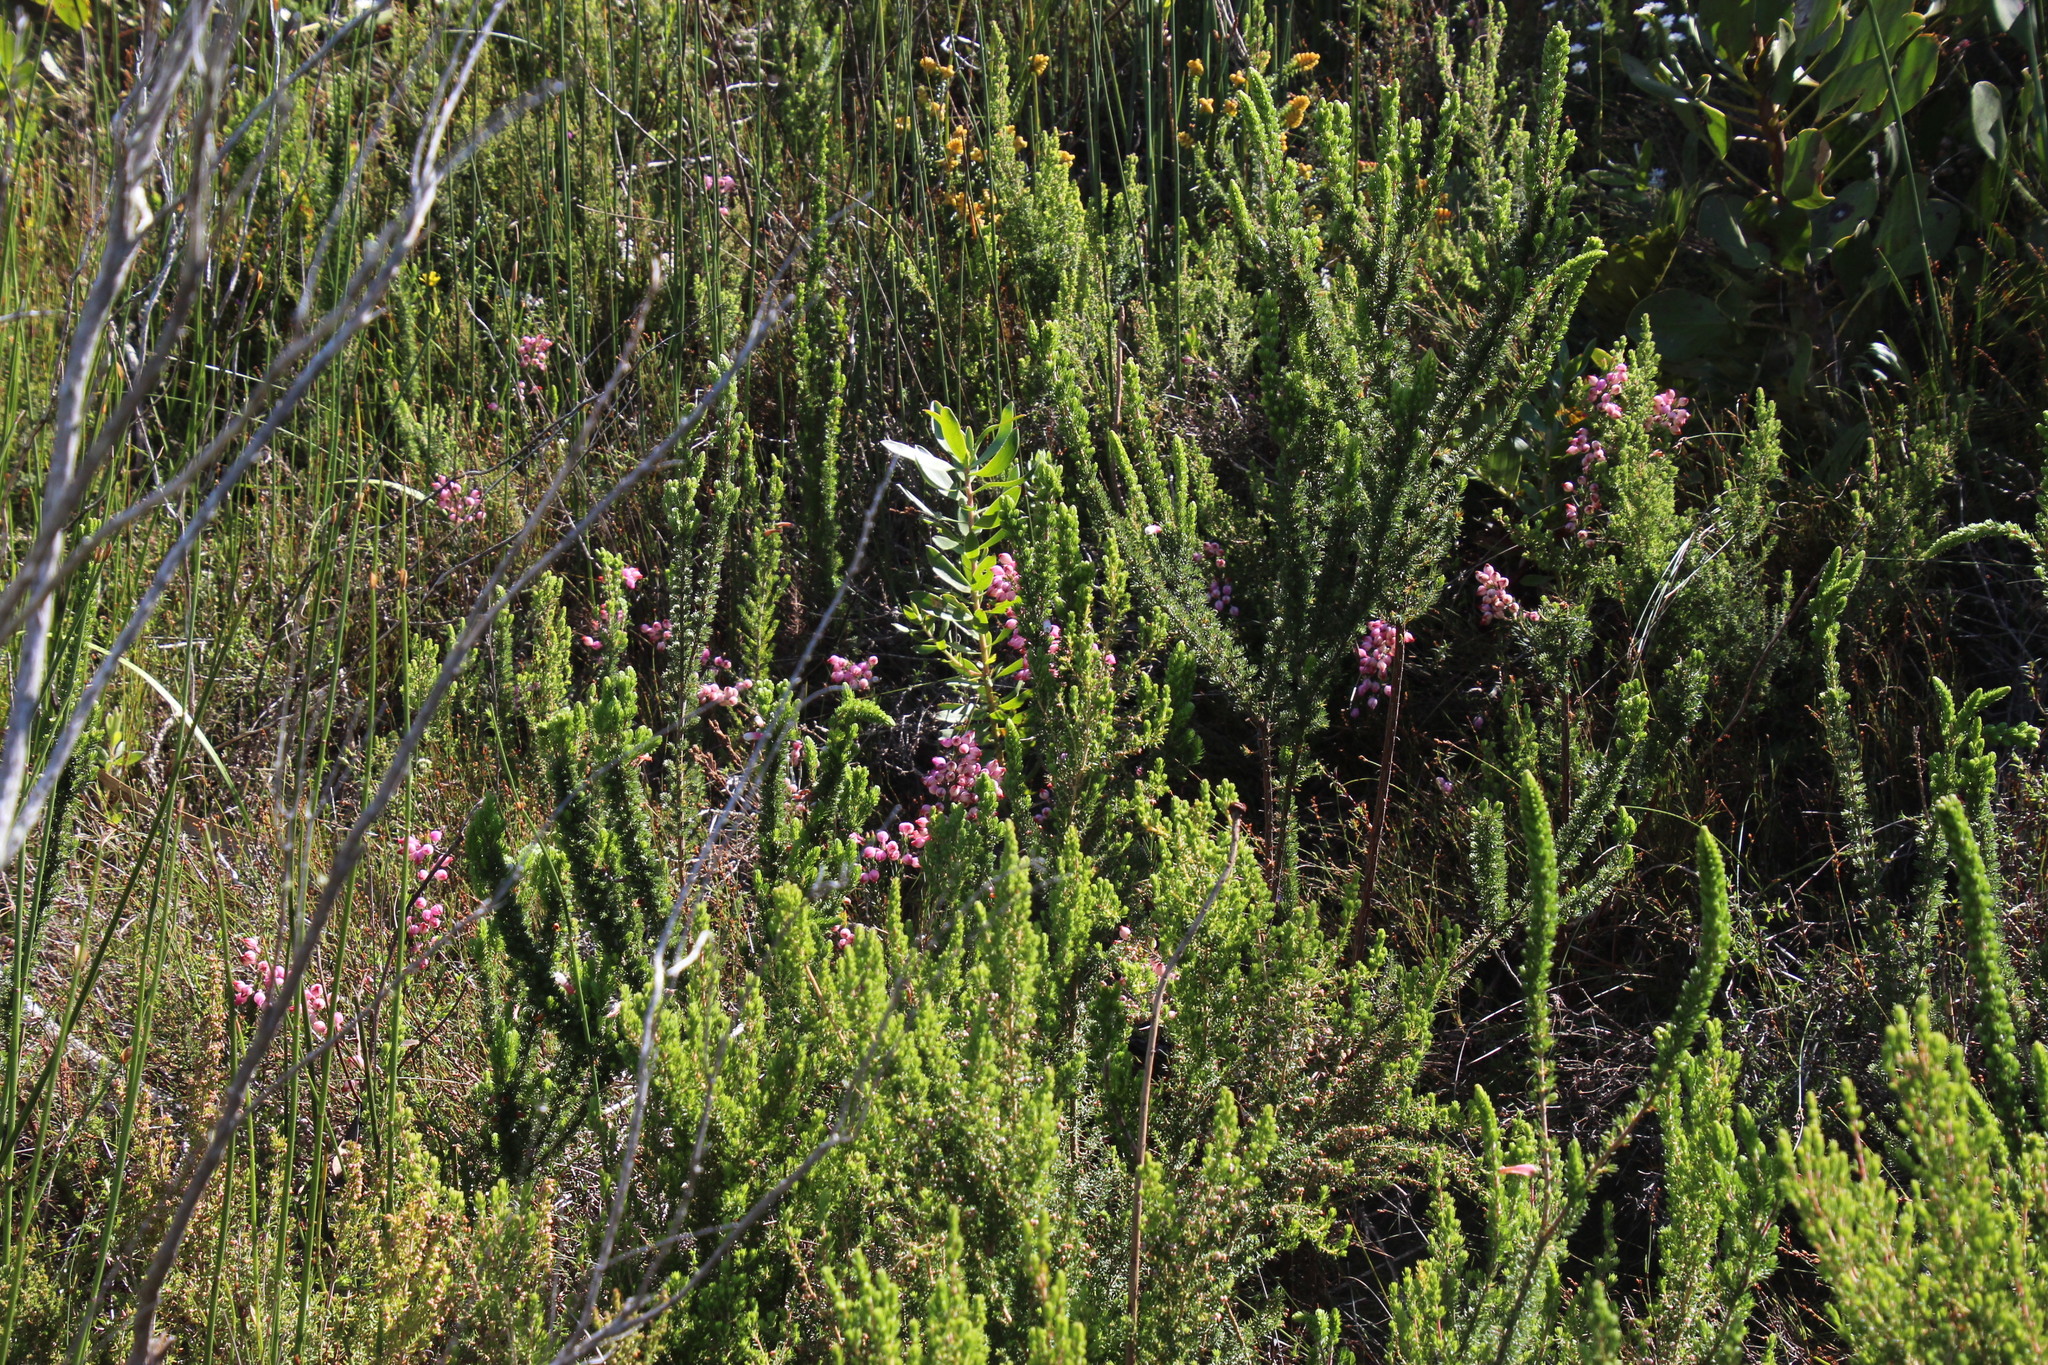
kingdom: Plantae
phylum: Tracheophyta
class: Magnoliopsida
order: Ericales
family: Ericaceae
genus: Erica
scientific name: Erica holosericea
